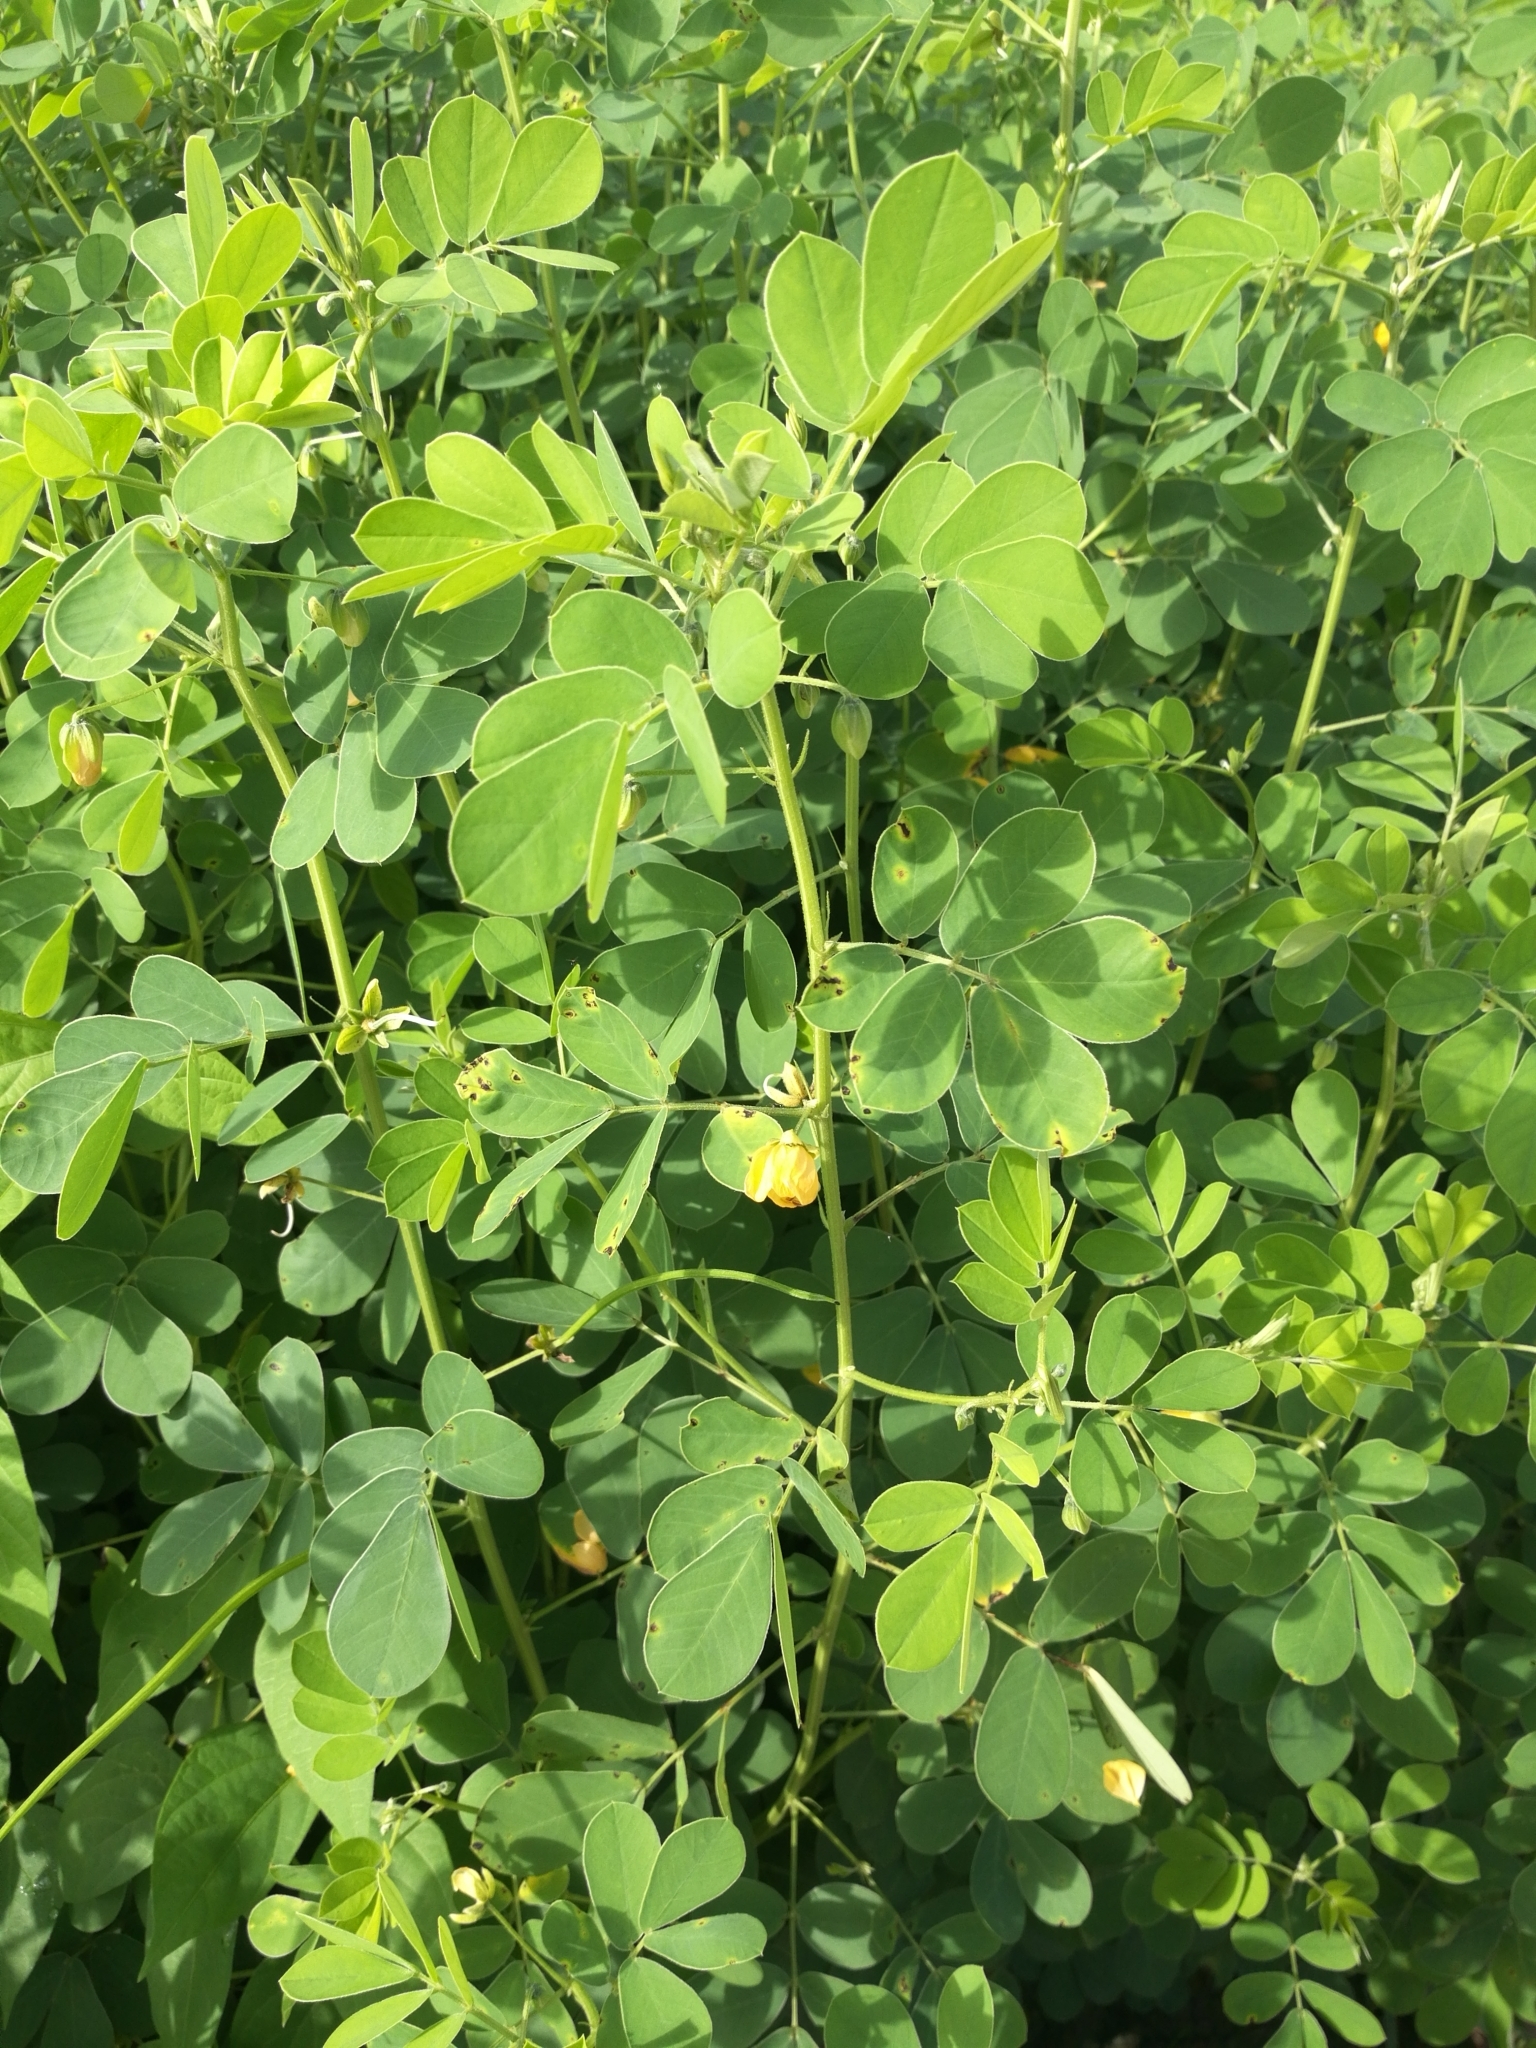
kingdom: Plantae
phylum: Tracheophyta
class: Magnoliopsida
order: Fabales
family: Fabaceae
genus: Senna
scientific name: Senna obtusifolia
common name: Java-bean
